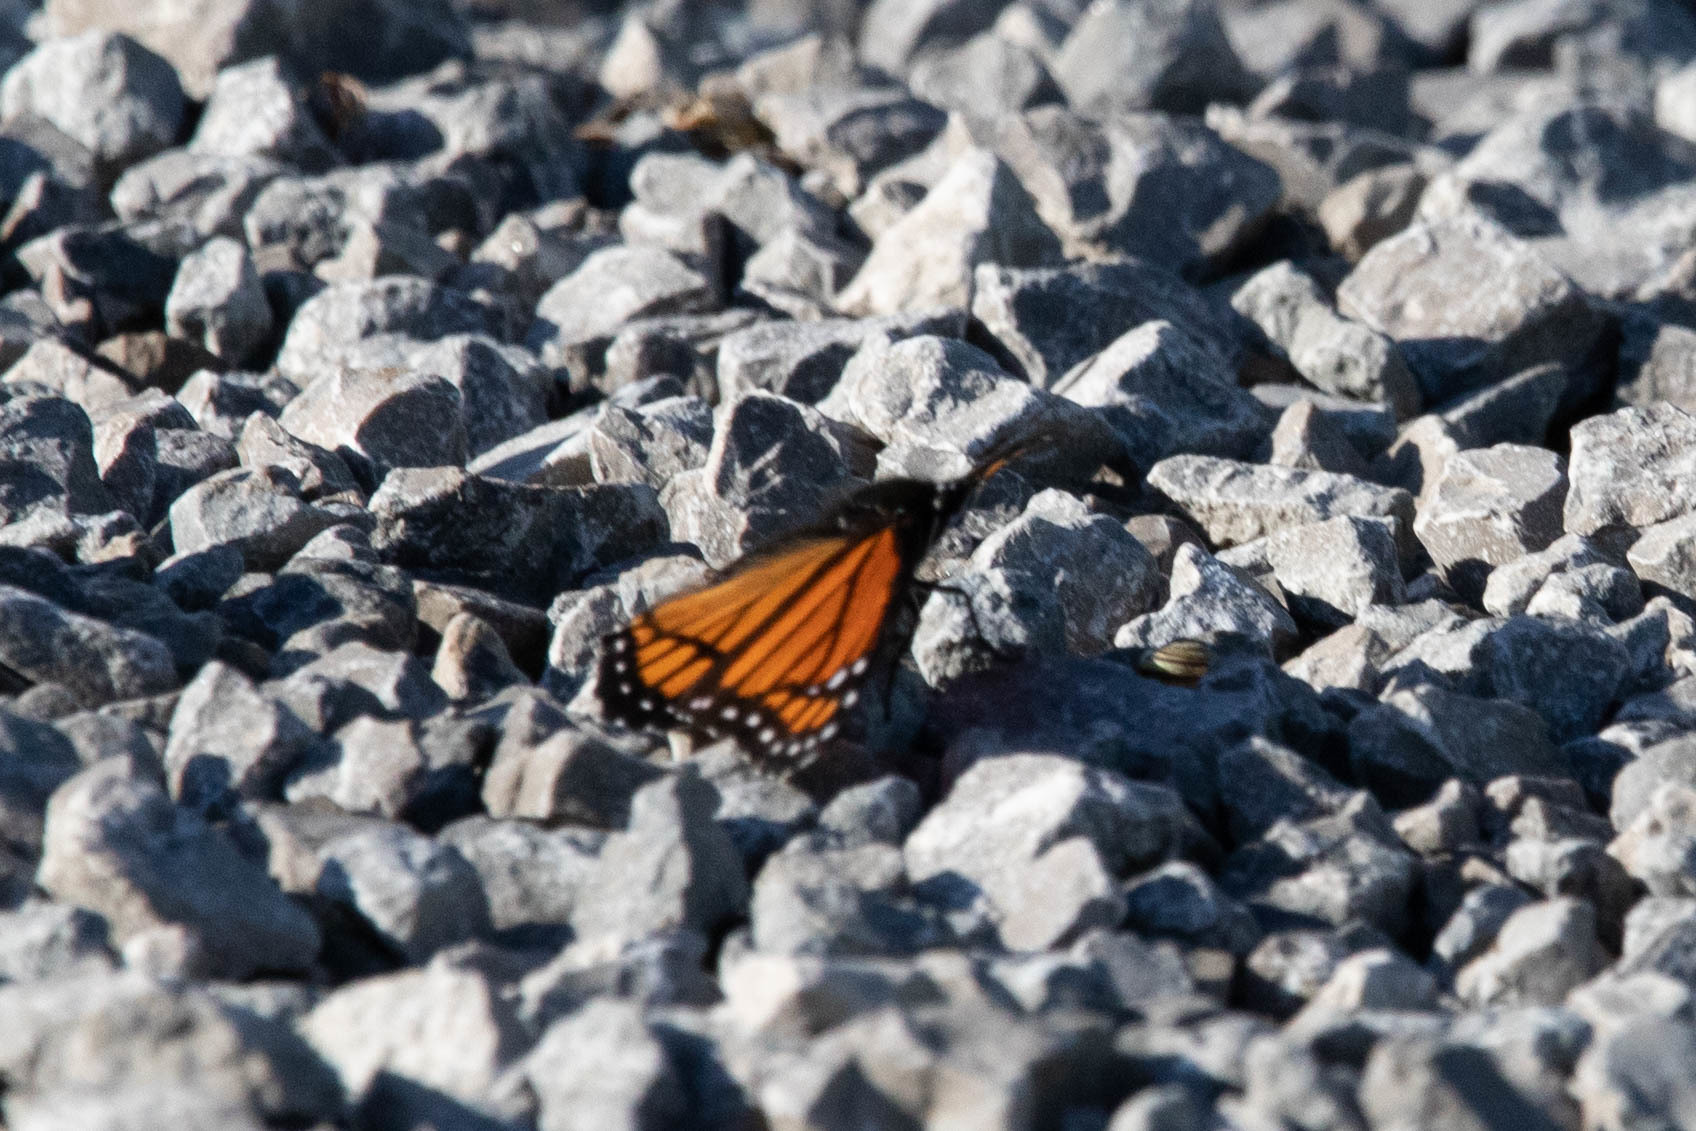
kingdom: Animalia
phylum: Arthropoda
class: Insecta
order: Lepidoptera
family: Nymphalidae
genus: Limenitis
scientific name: Limenitis archippus
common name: Viceroy
